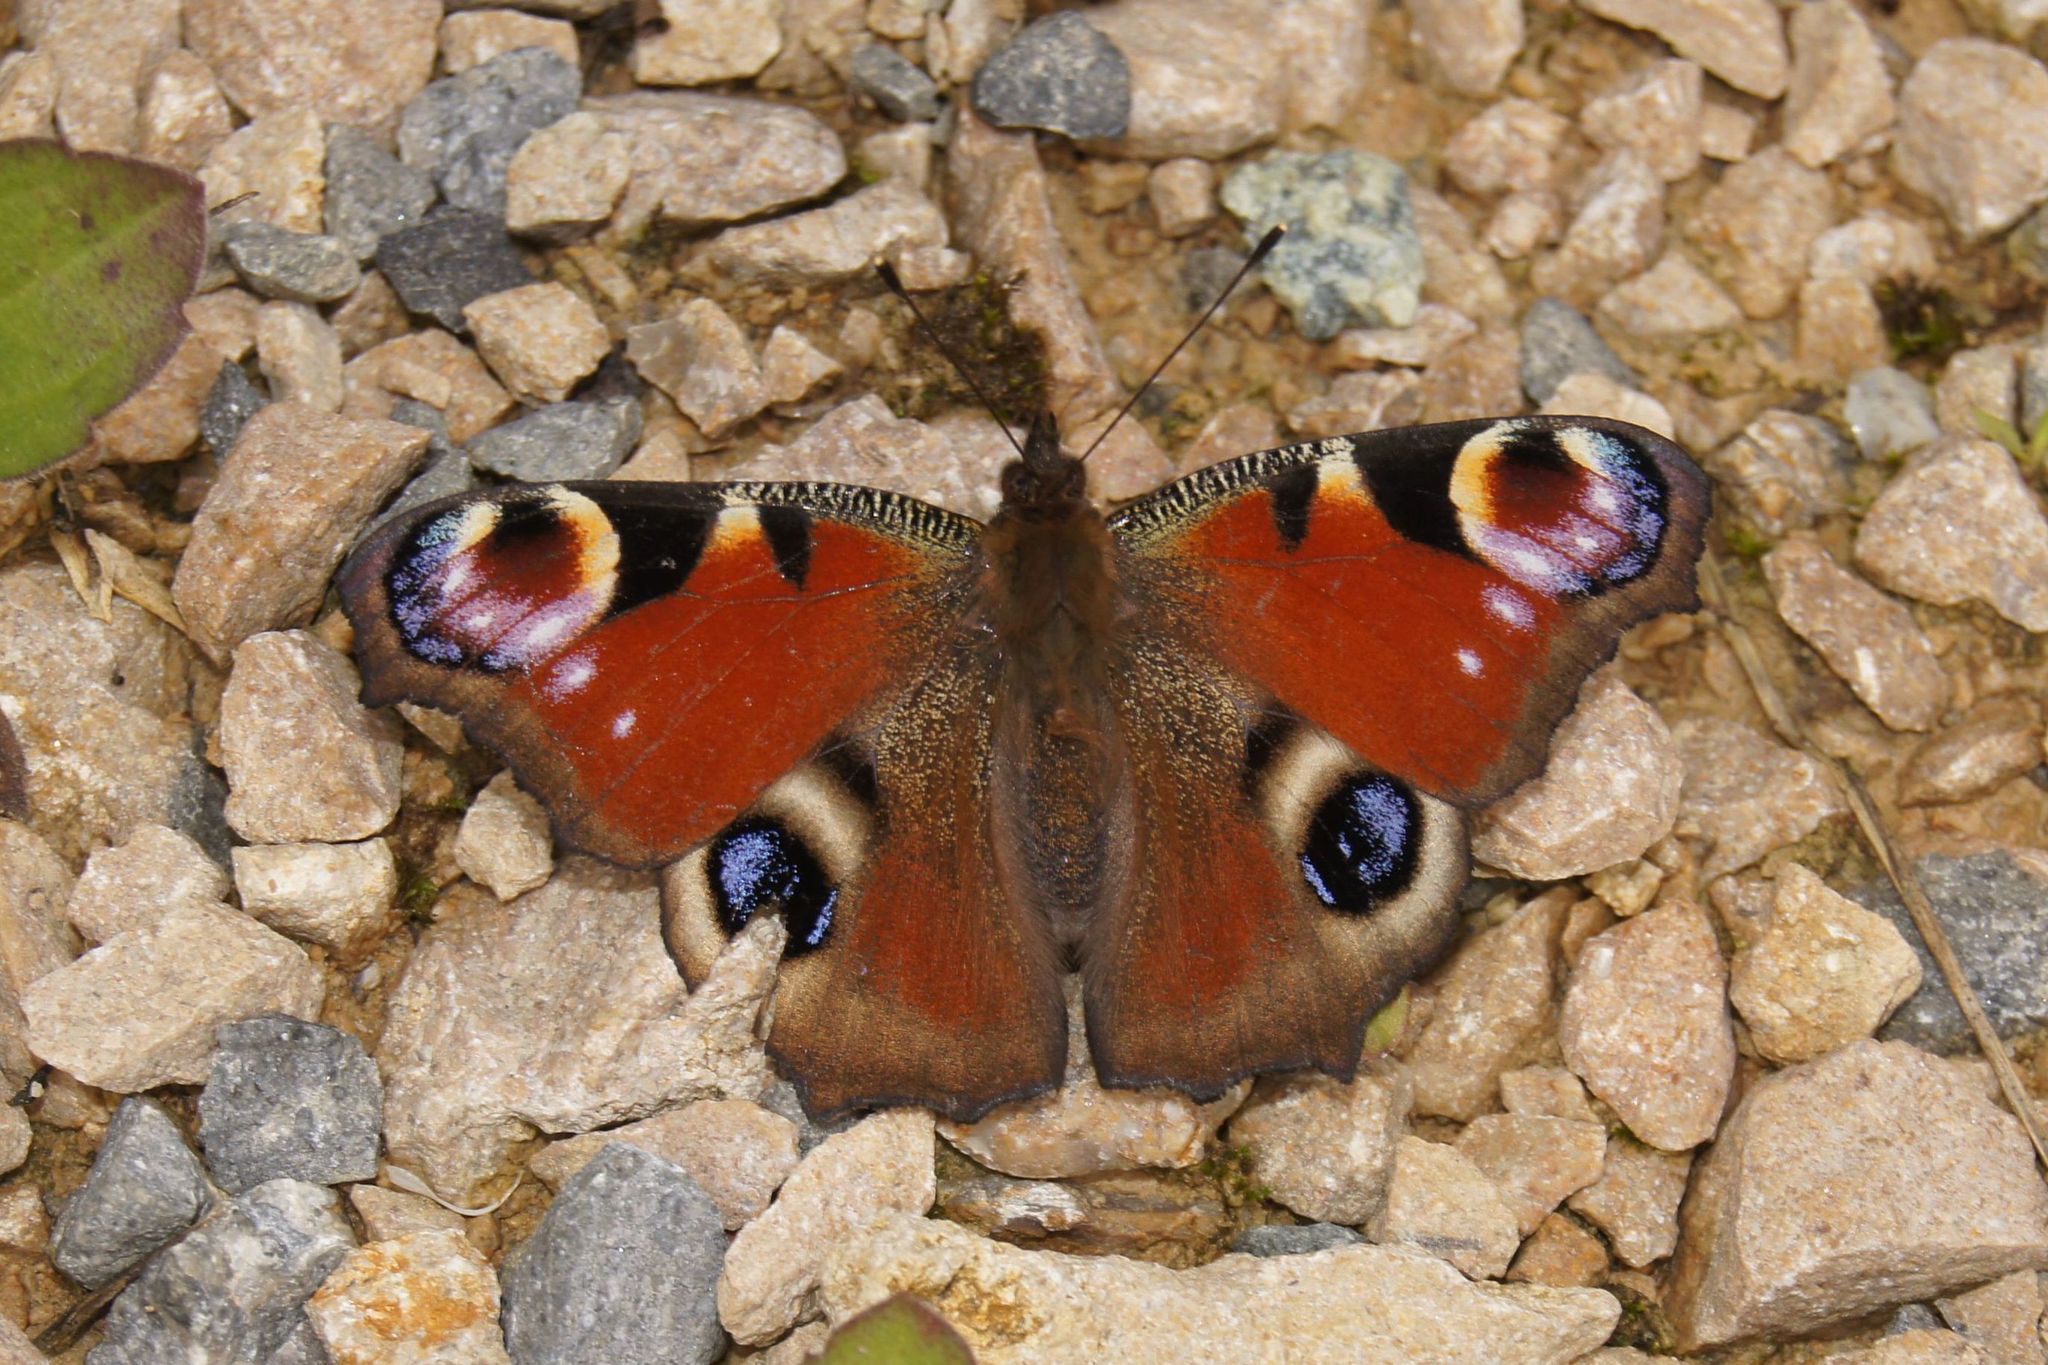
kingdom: Animalia
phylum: Arthropoda
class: Insecta
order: Lepidoptera
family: Nymphalidae
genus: Aglais
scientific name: Aglais io
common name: Peacock
